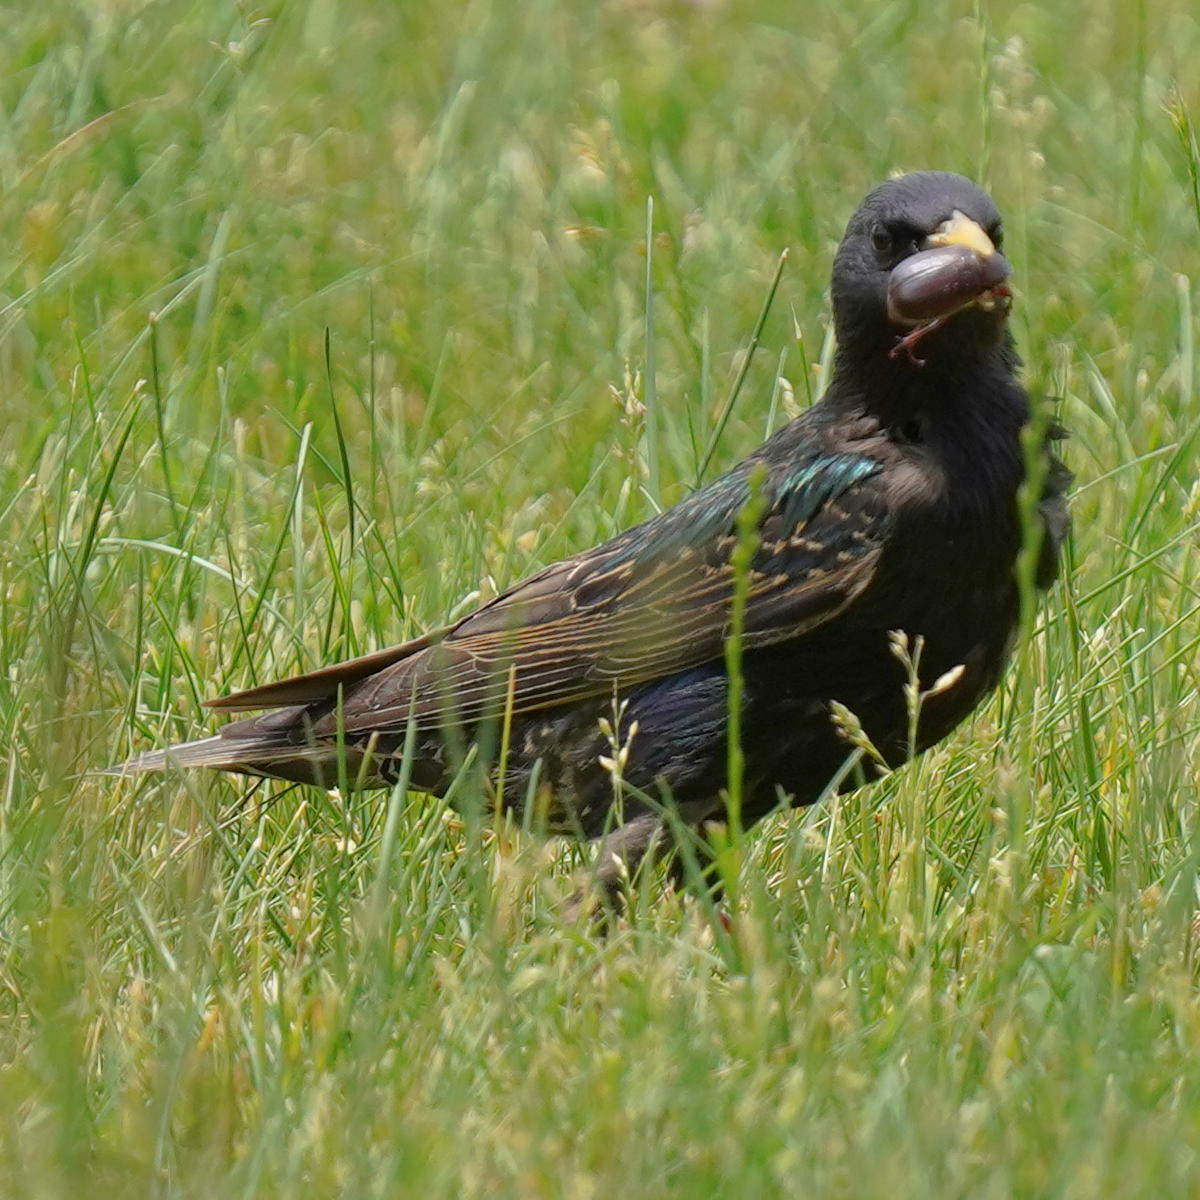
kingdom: Animalia
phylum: Chordata
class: Aves
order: Passeriformes
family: Sturnidae
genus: Sturnus
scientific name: Sturnus vulgaris
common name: Common starling
